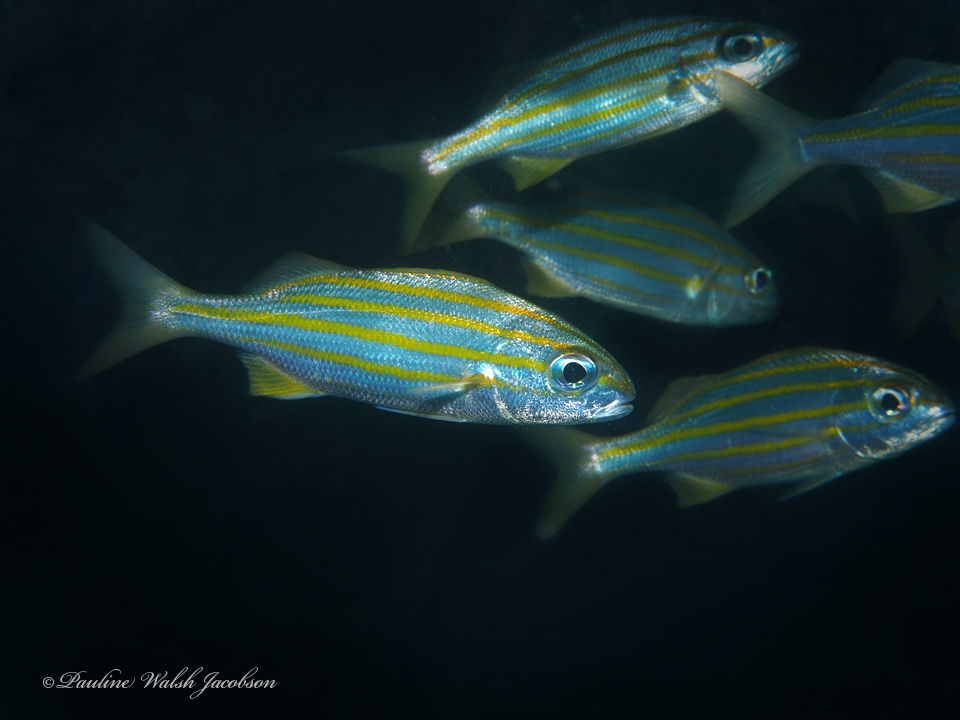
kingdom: Animalia
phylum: Chordata
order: Perciformes
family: Haemulidae
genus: Haemulon
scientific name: Haemulon chrysargyreum
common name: Smallmouth grunt
